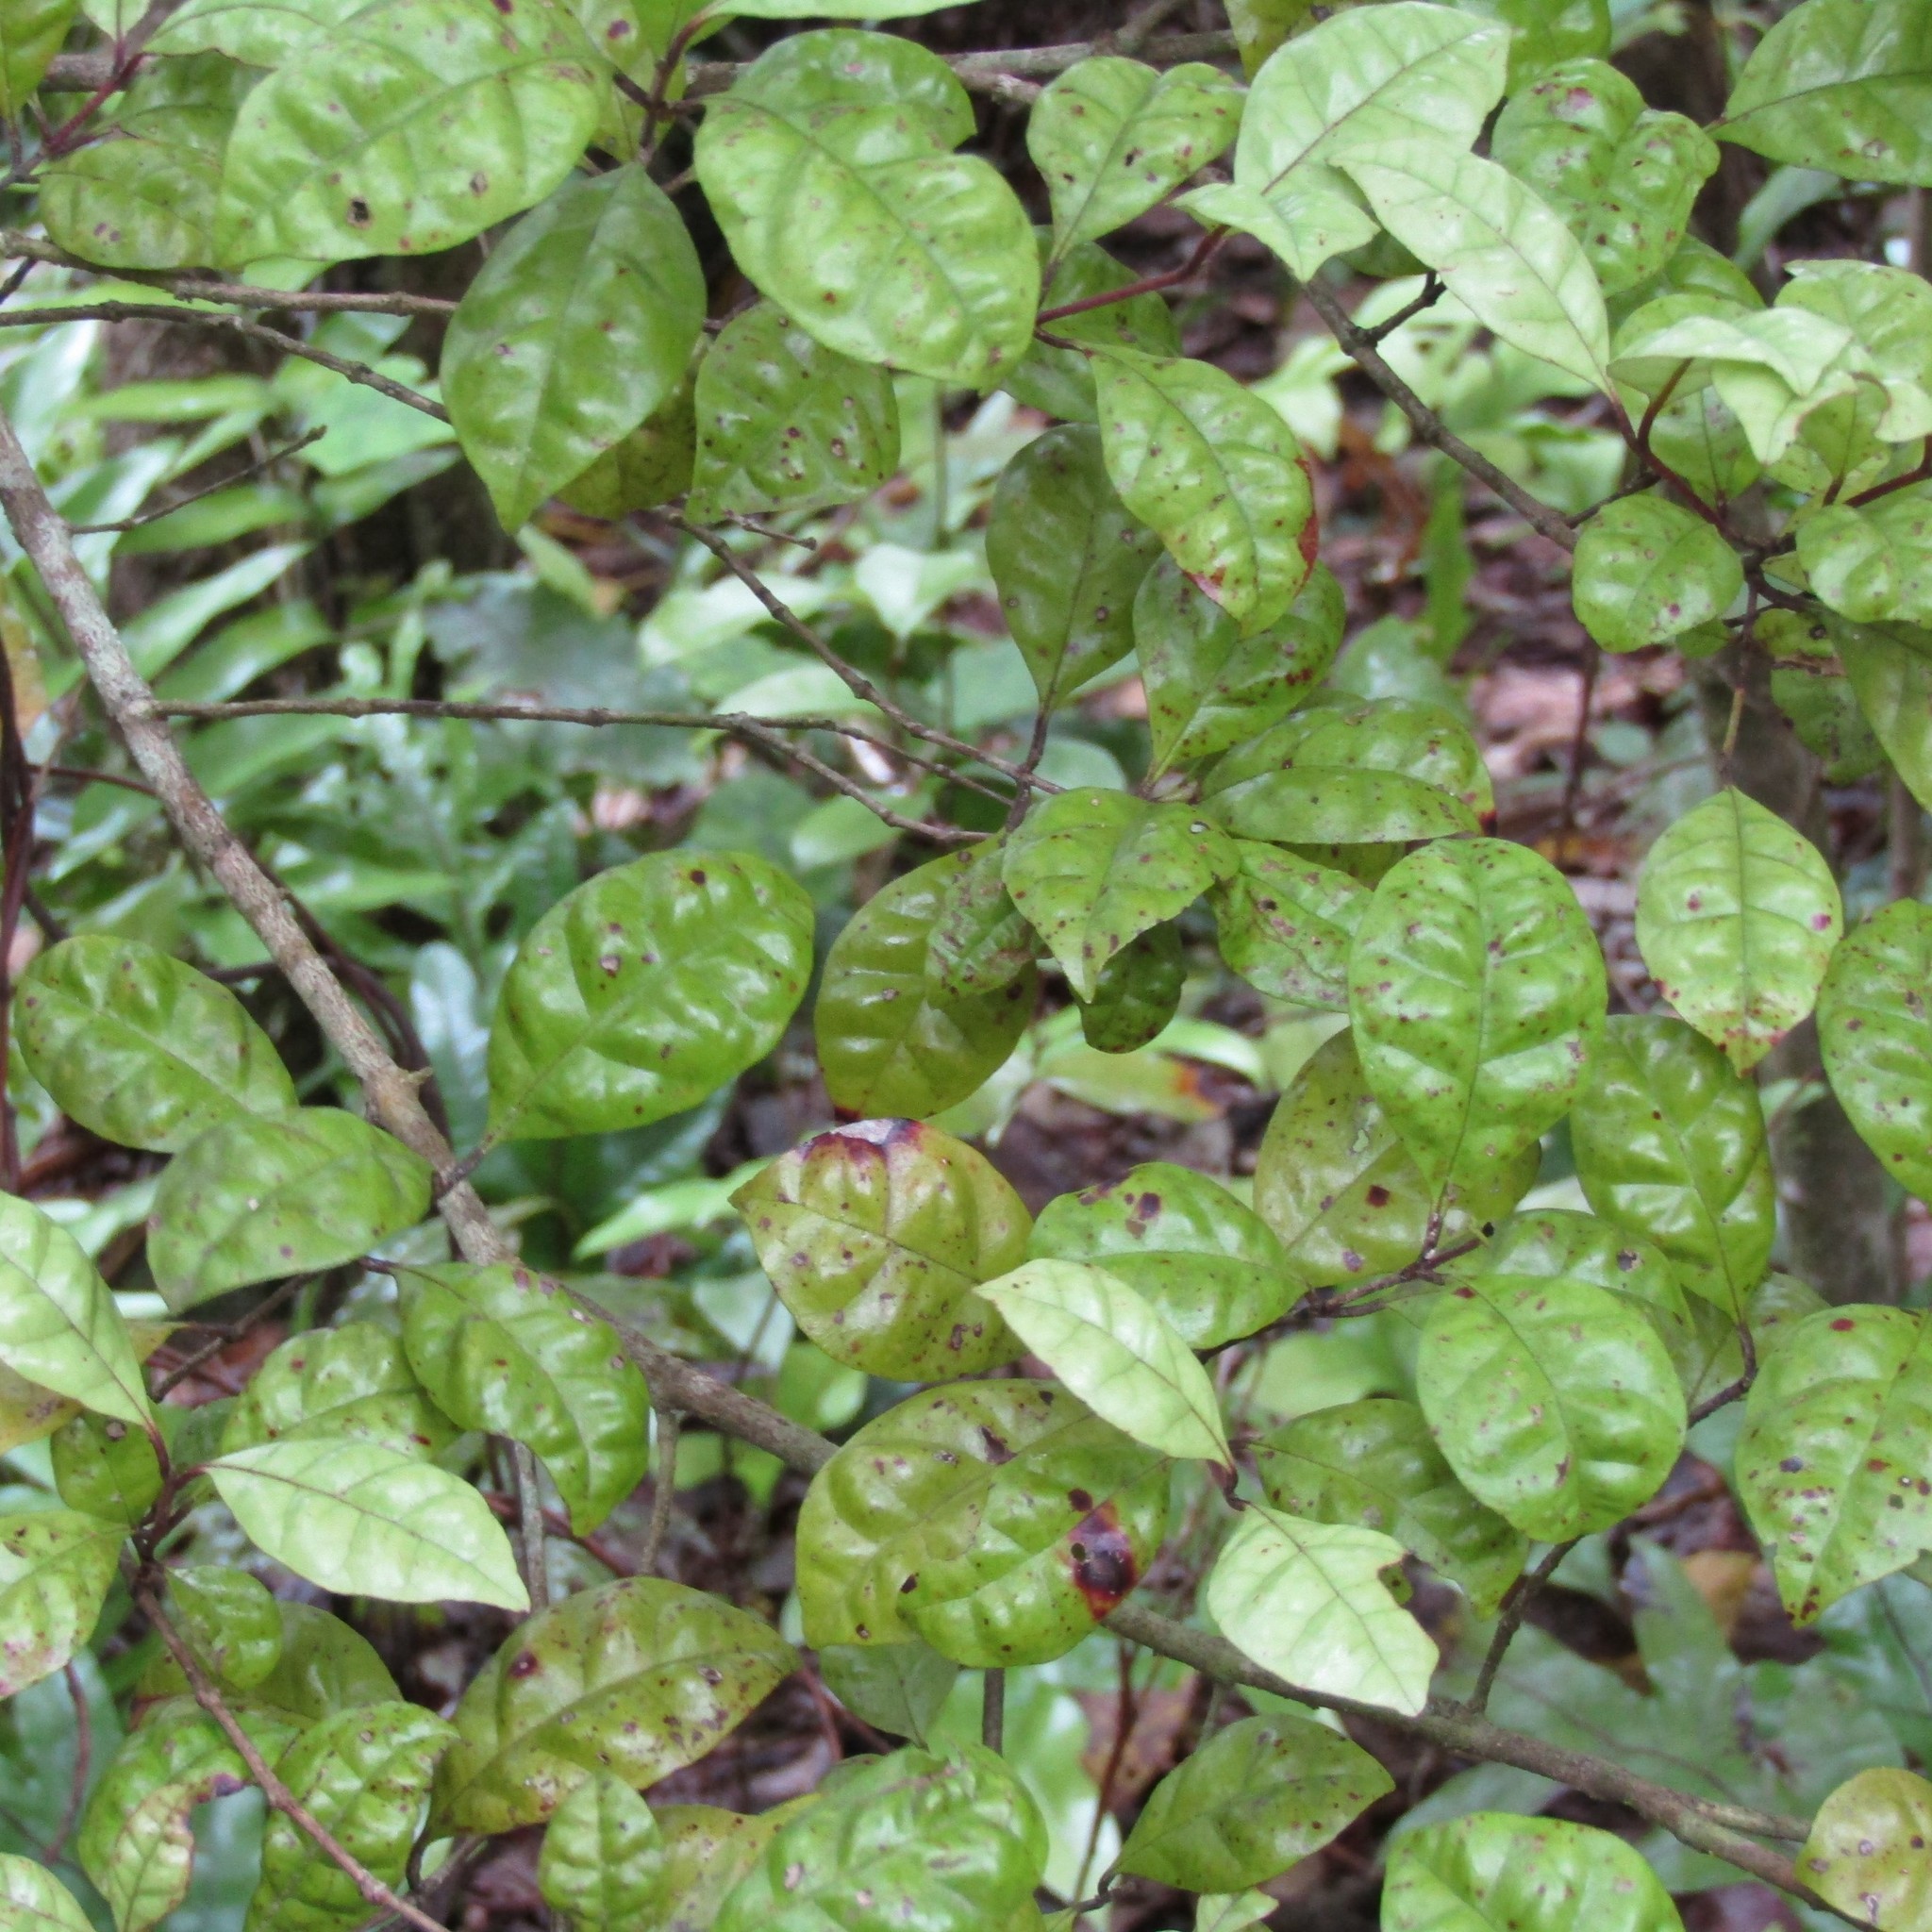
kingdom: Plantae
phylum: Tracheophyta
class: Magnoliopsida
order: Myrtales
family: Myrtaceae
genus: Lophomyrtus
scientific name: Lophomyrtus bullata
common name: Rama rama
